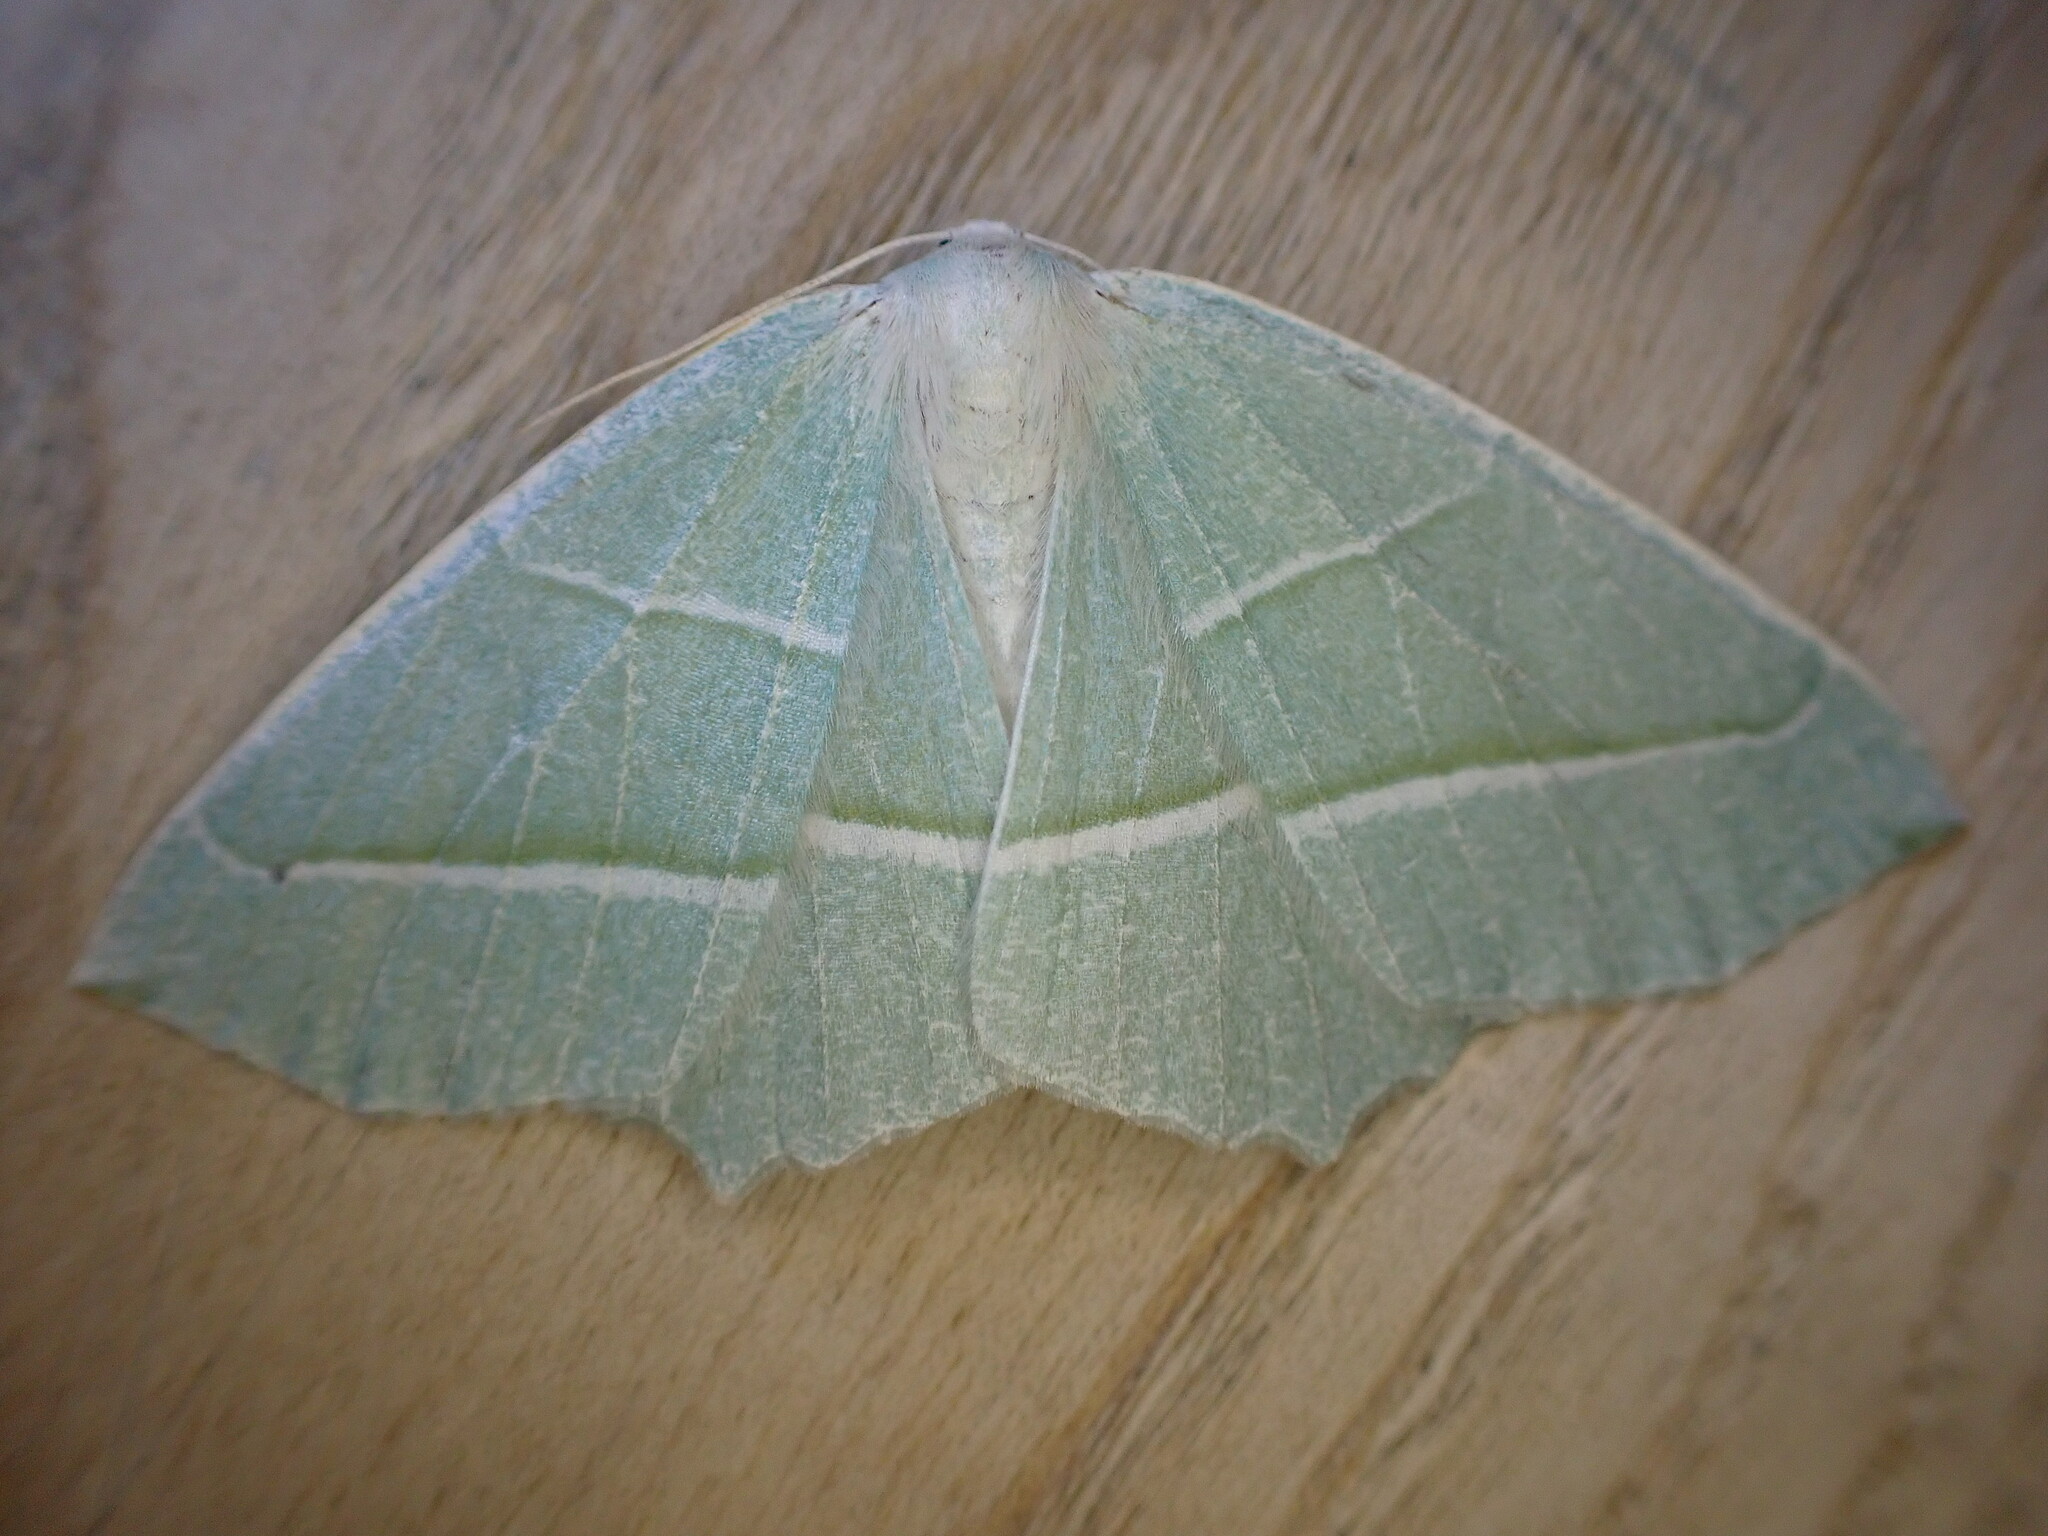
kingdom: Animalia
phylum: Arthropoda
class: Insecta
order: Lepidoptera
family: Geometridae
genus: Campaea
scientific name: Campaea margaritaria
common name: Light emerald
